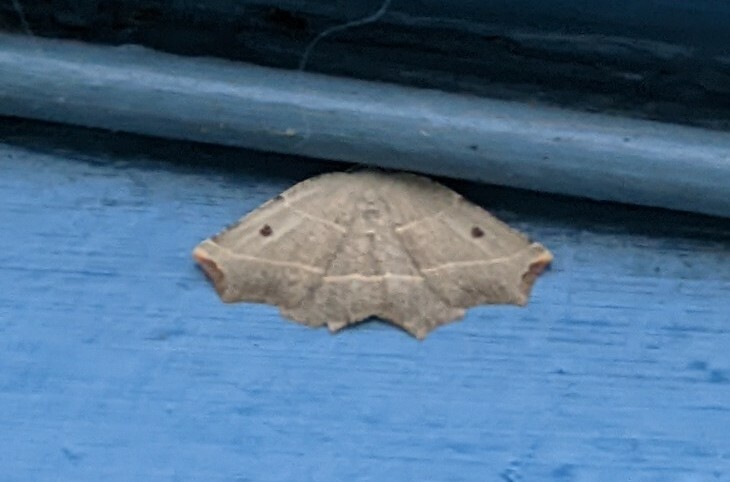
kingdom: Animalia
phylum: Arthropoda
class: Insecta
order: Lepidoptera
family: Geometridae
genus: Metanema
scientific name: Metanema inatomaria
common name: Pale metanema
